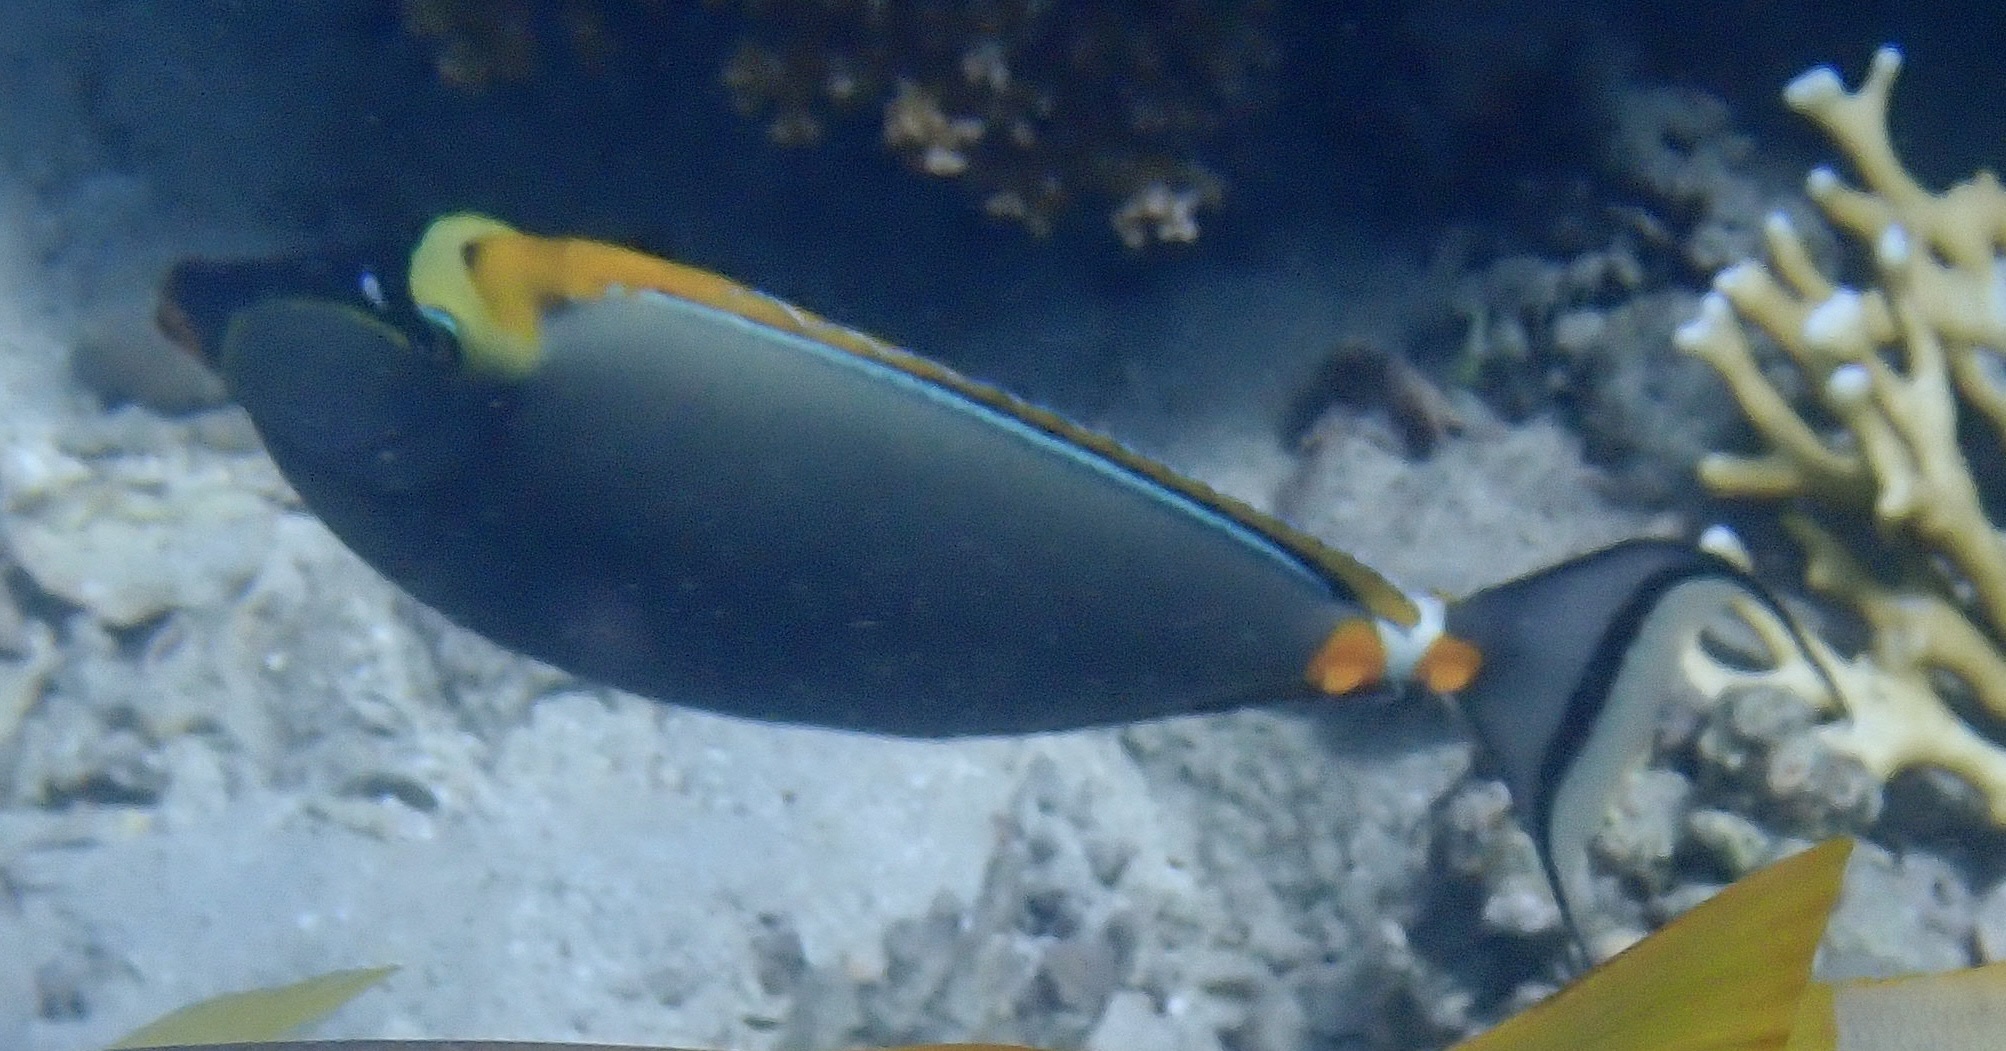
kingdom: Animalia
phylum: Chordata
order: Perciformes
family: Acanthuridae
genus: Naso
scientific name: Naso elegans
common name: Orangespine unicornfish
